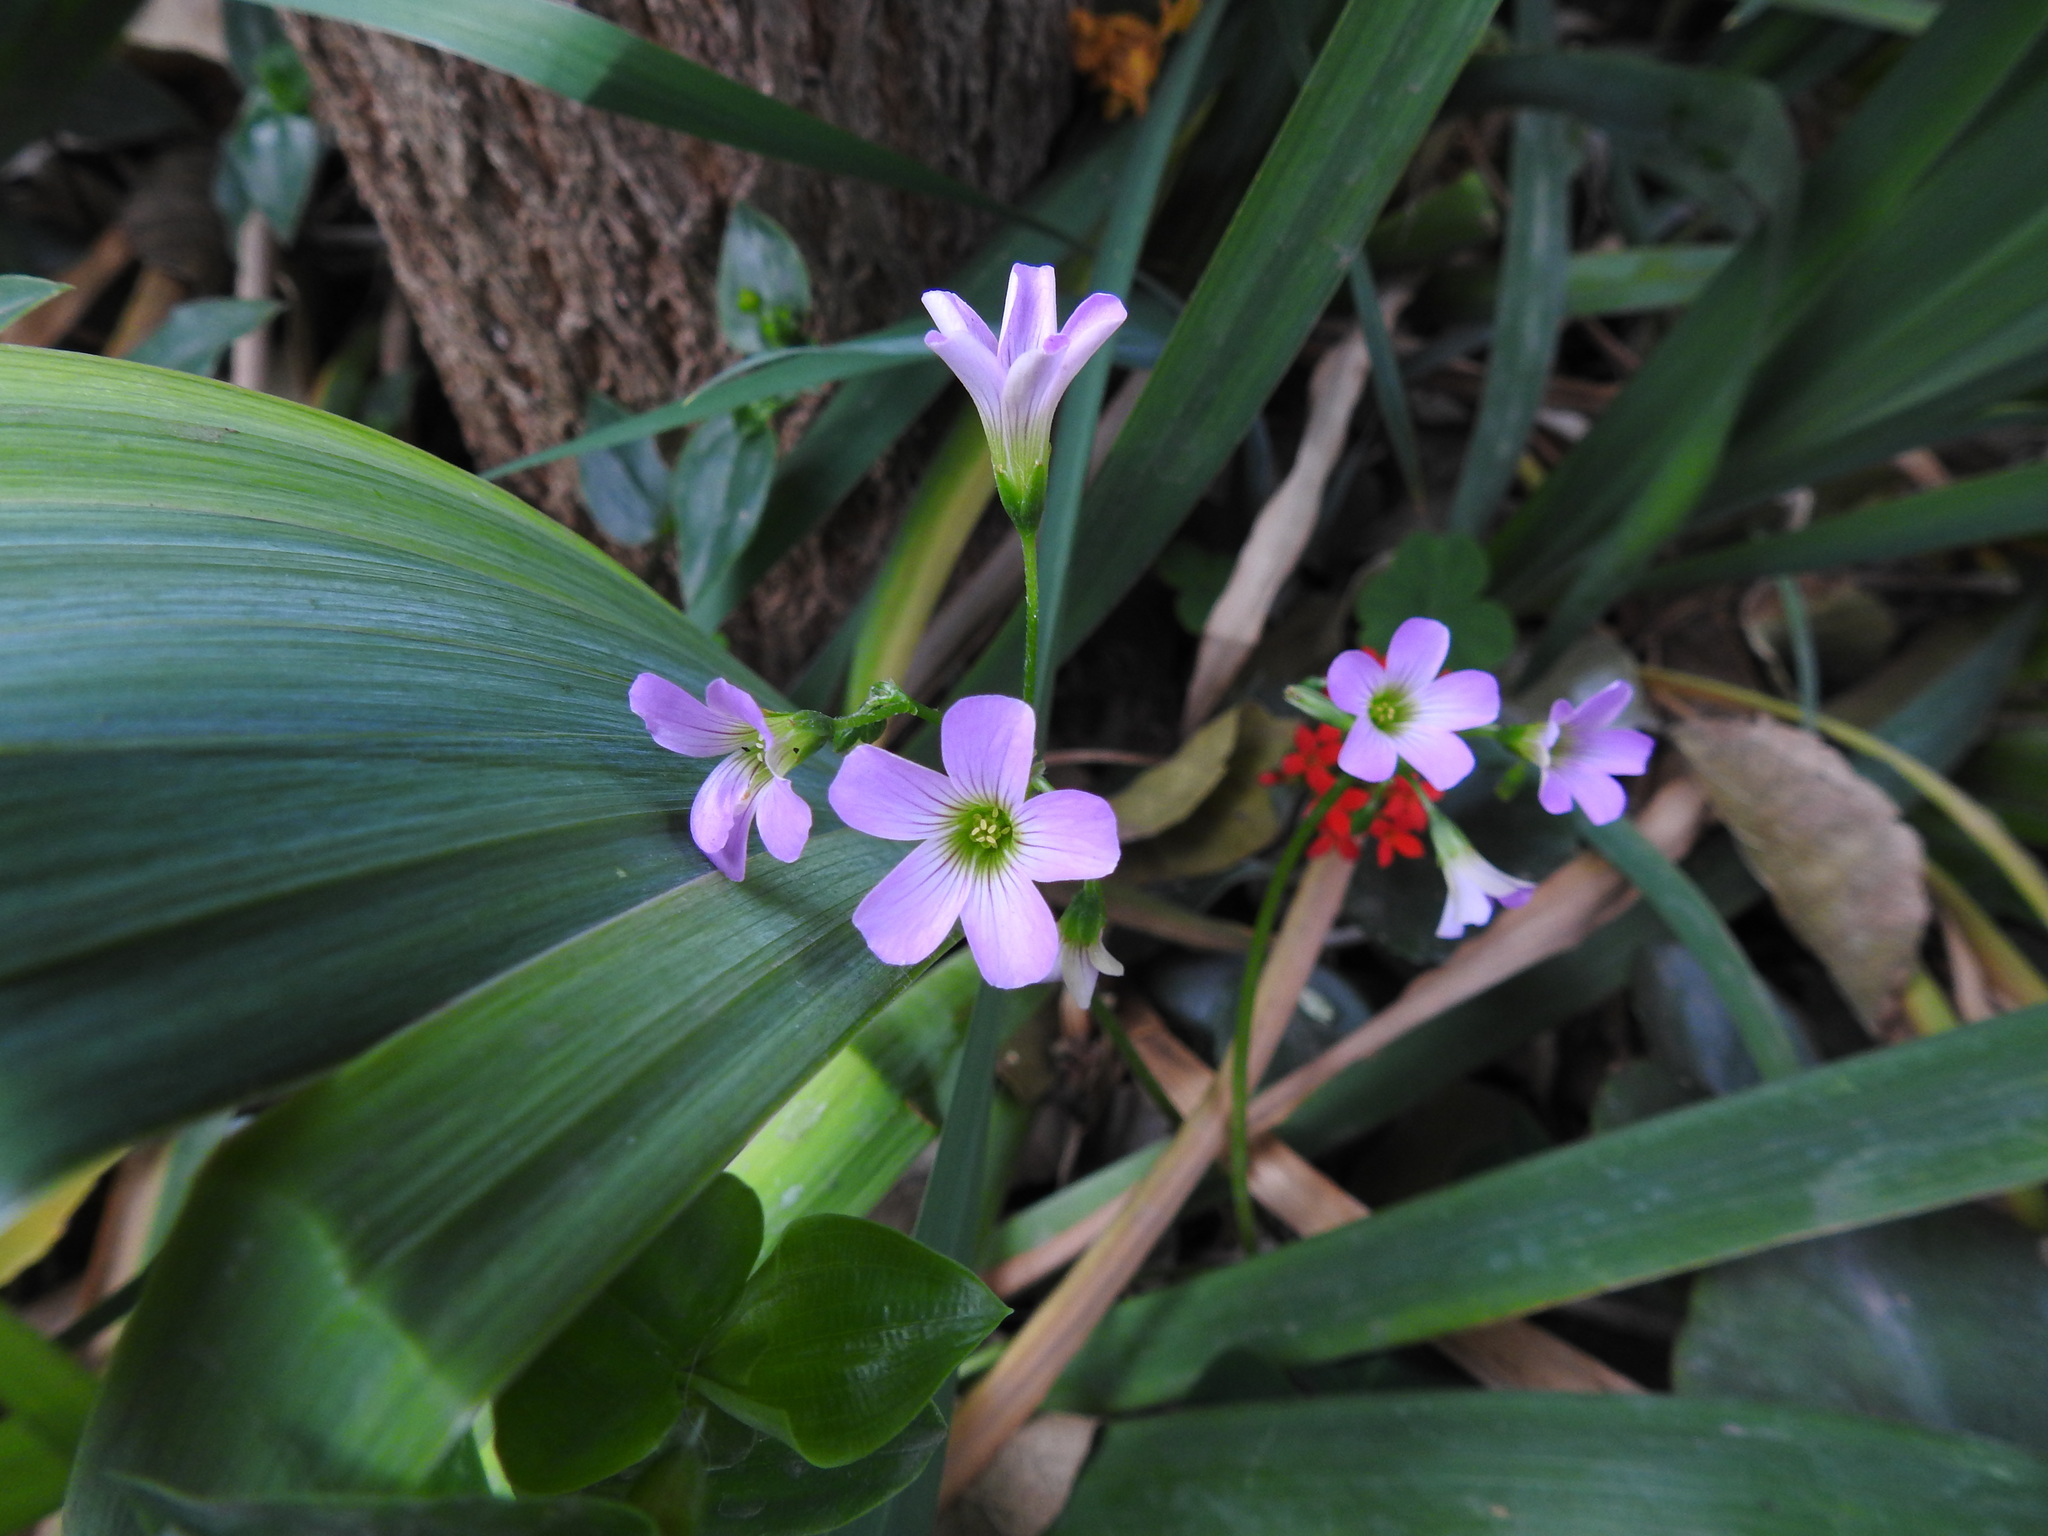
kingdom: Plantae
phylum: Tracheophyta
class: Magnoliopsida
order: Oxalidales
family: Oxalidaceae
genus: Oxalis
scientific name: Oxalis debilis
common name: Large-flowered pink-sorrel
